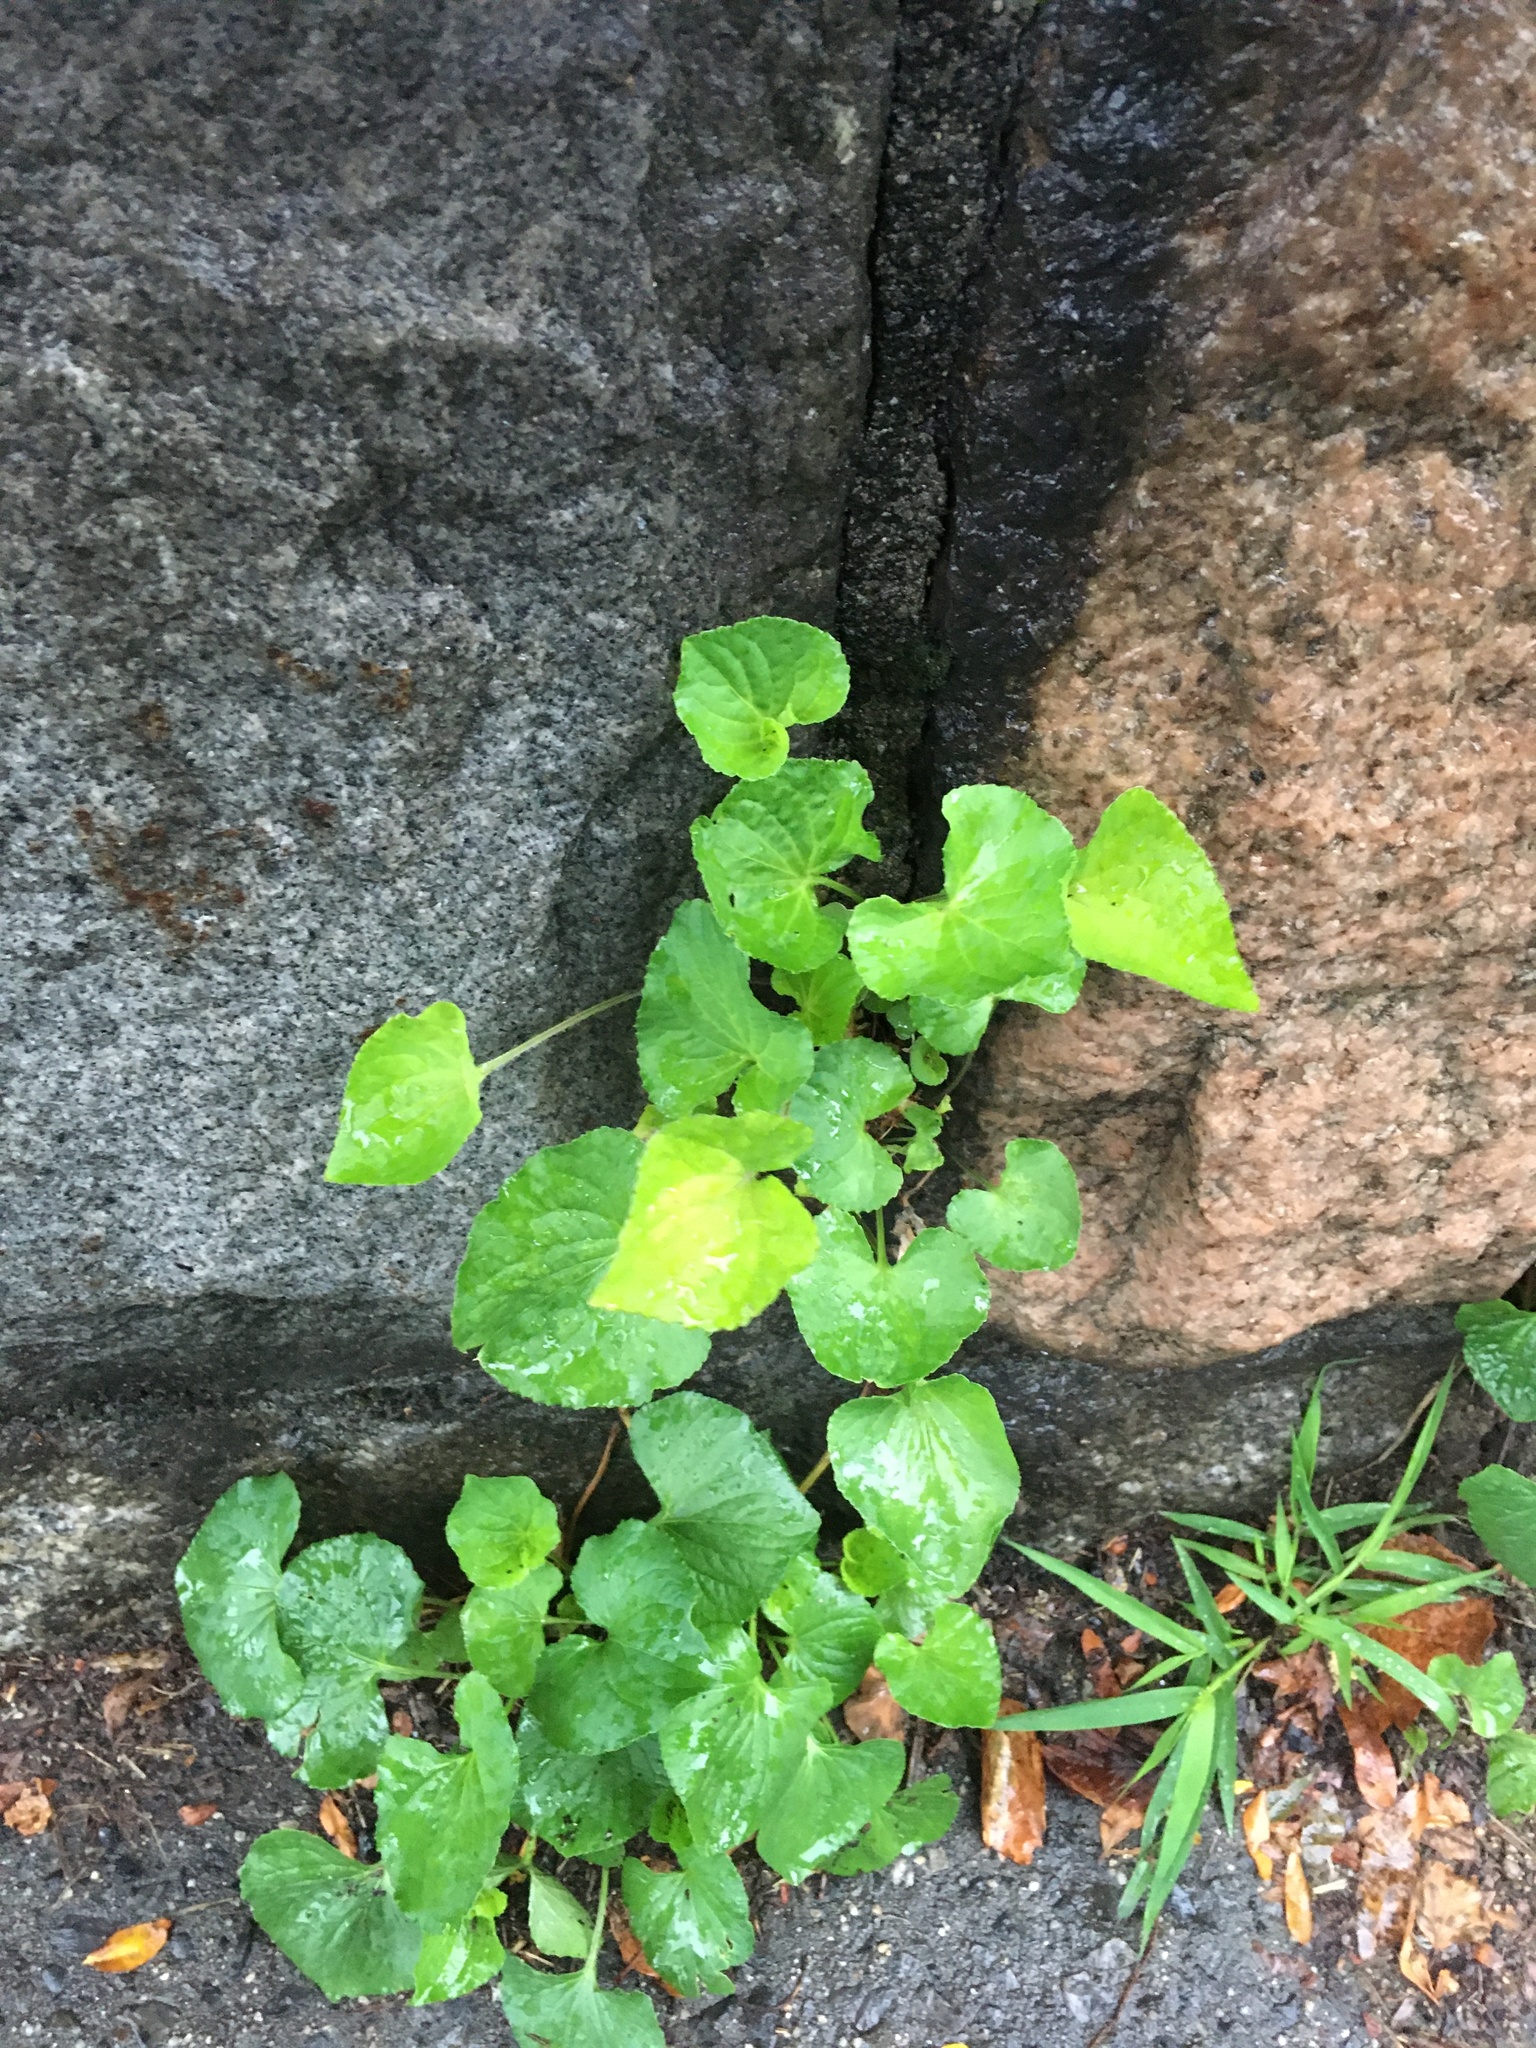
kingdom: Plantae
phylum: Tracheophyta
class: Magnoliopsida
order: Malpighiales
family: Violaceae
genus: Viola
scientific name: Viola sororia
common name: Dooryard violet
